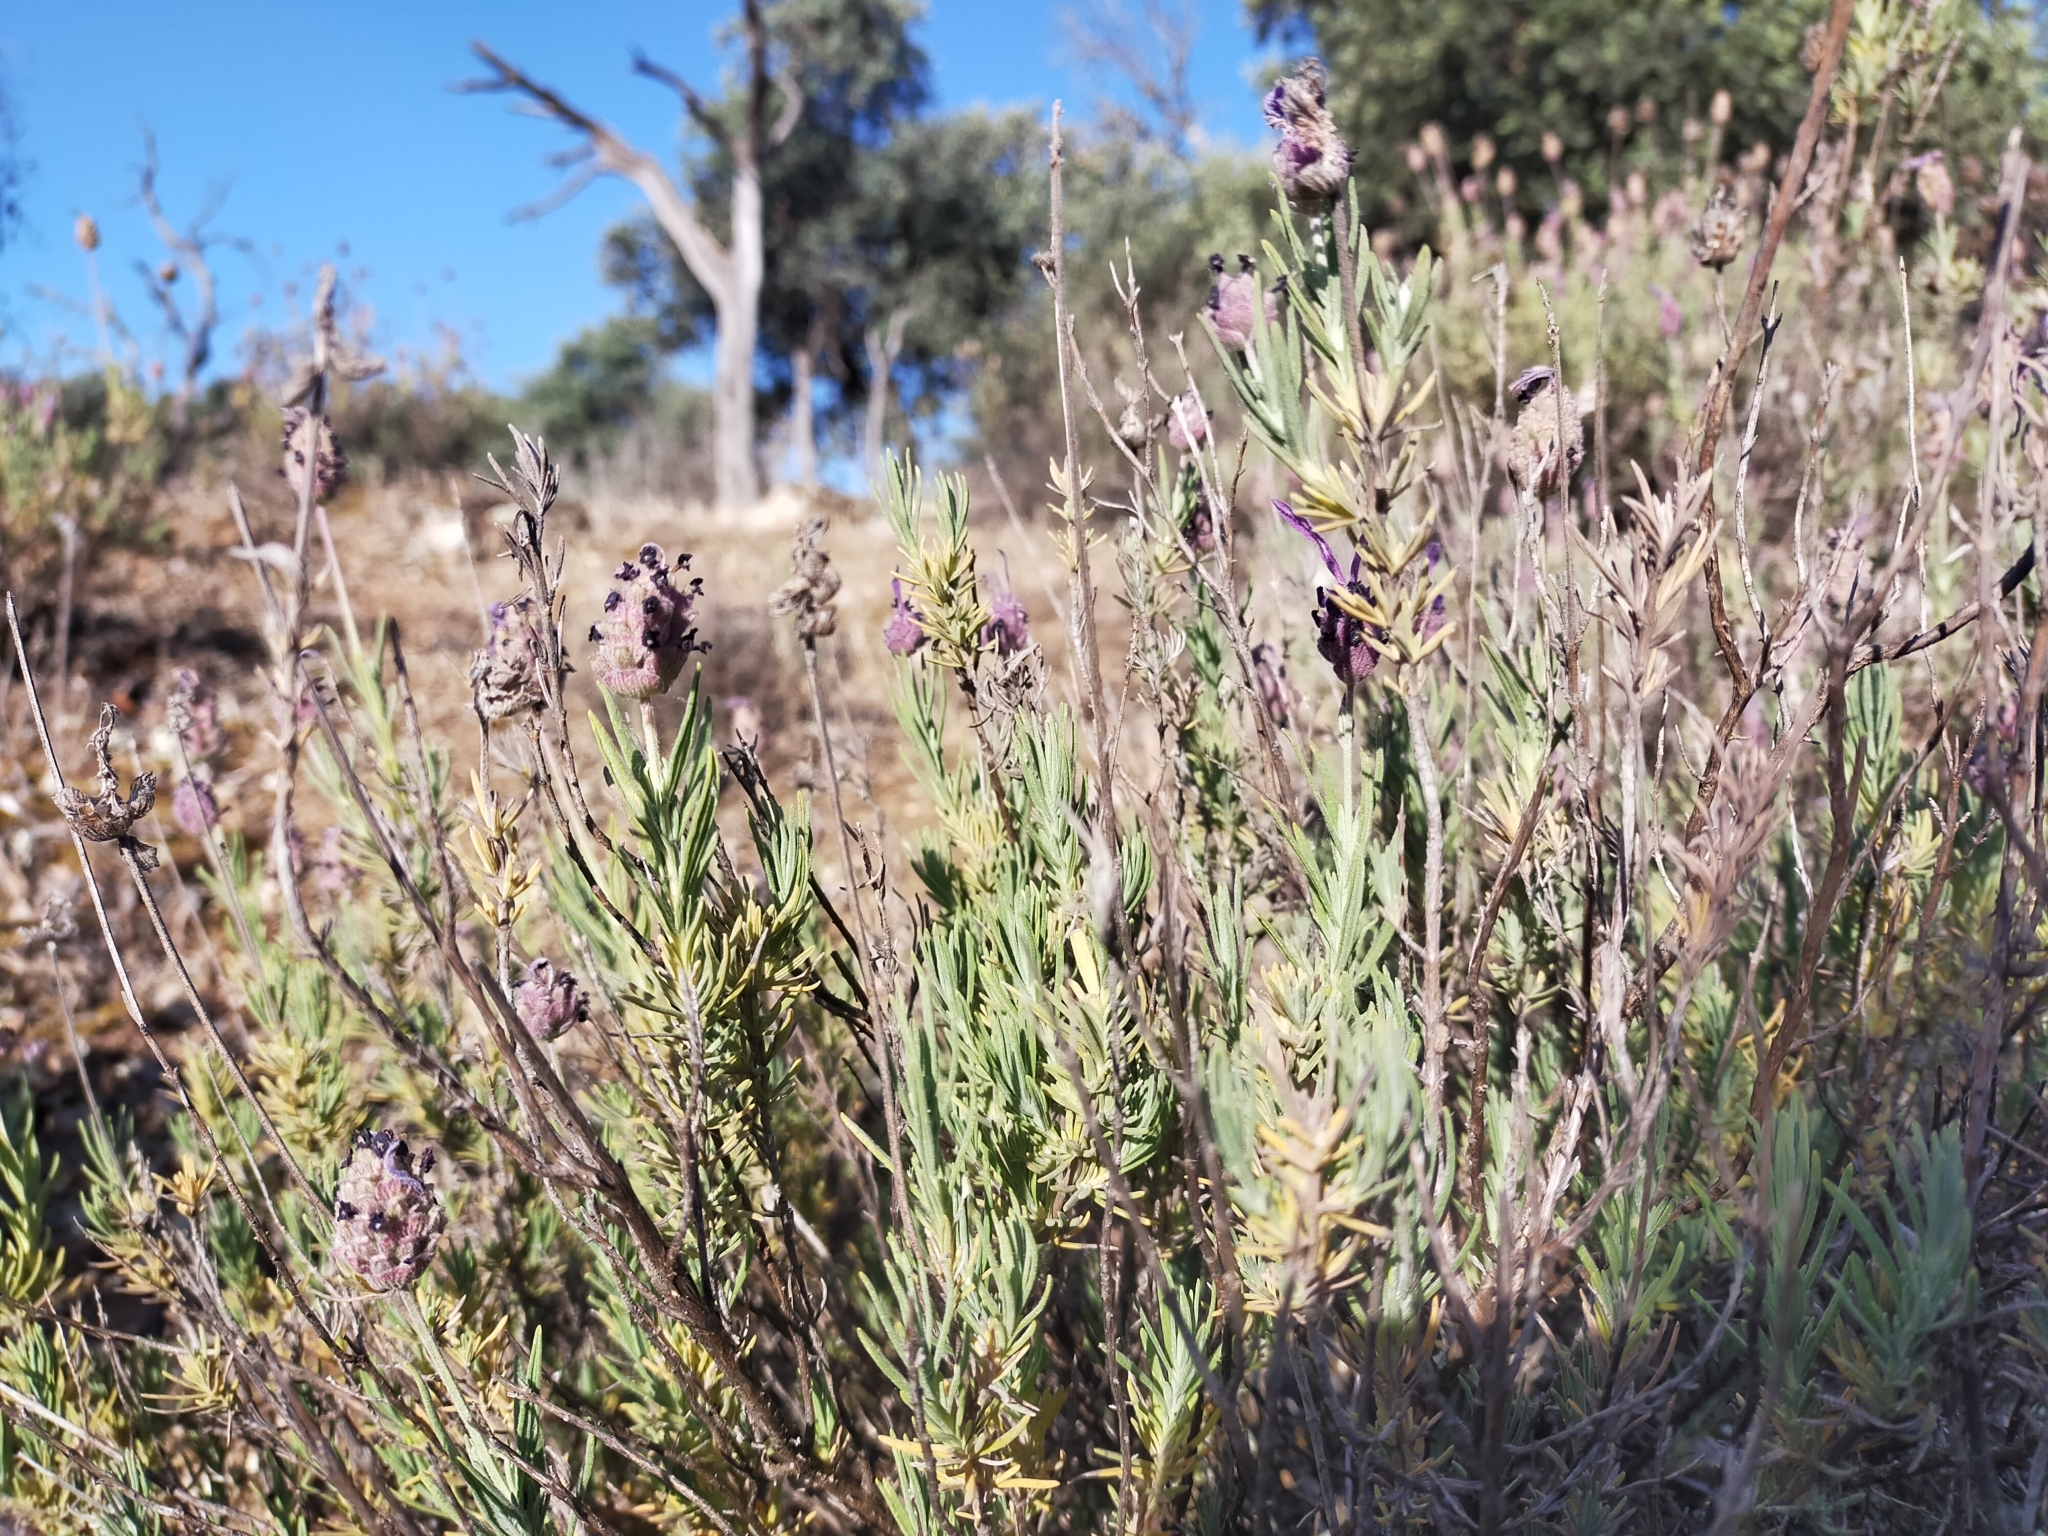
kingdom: Plantae
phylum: Tracheophyta
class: Magnoliopsida
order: Lamiales
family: Lamiaceae
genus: Lavandula
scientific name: Lavandula pedunculata
